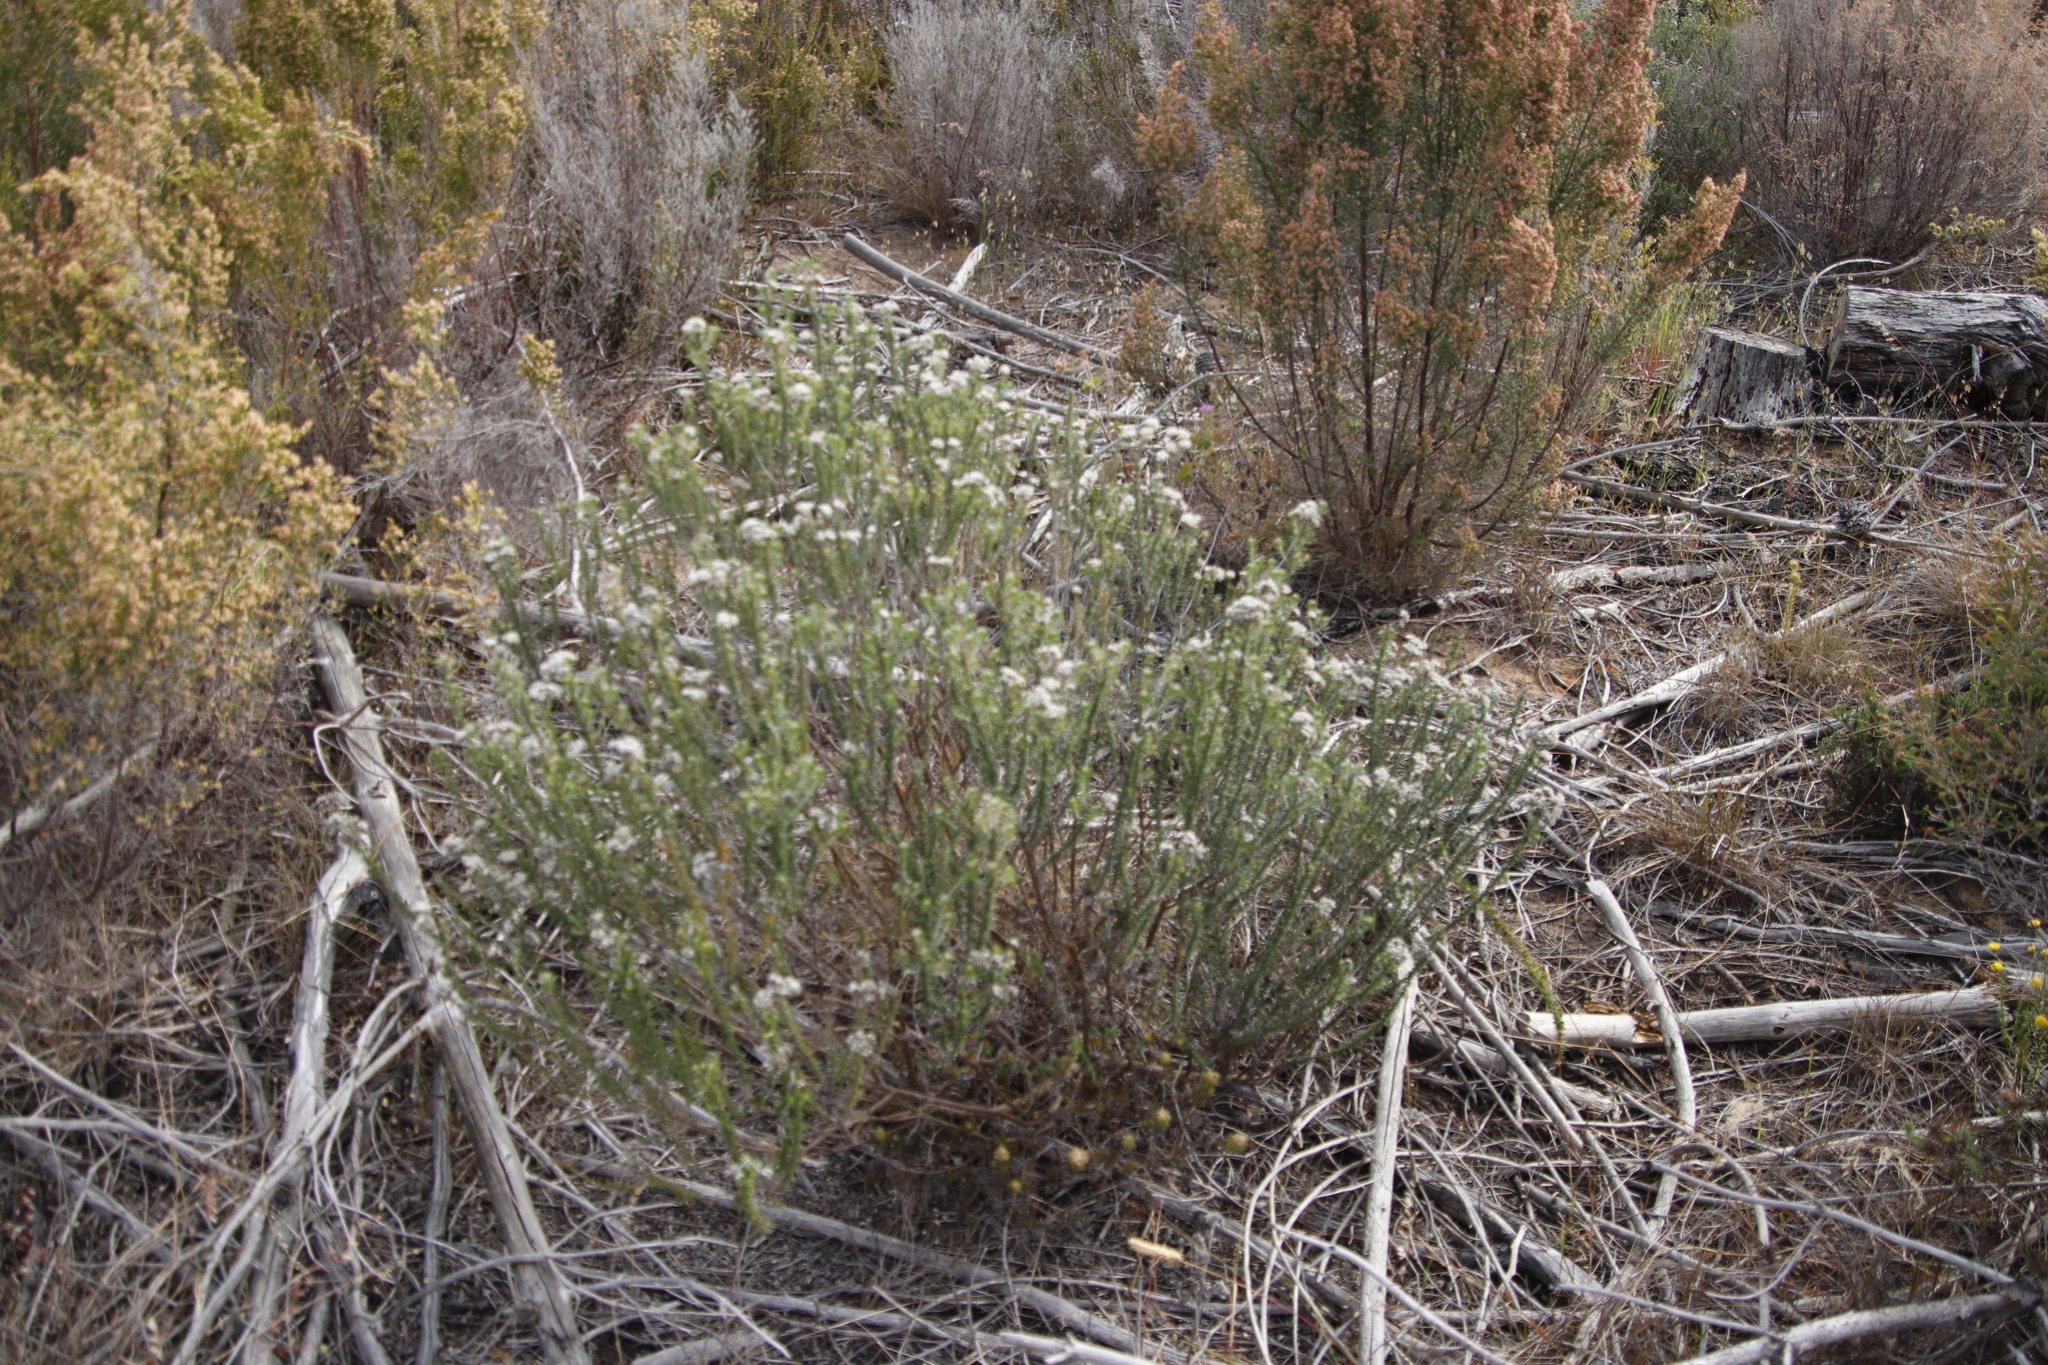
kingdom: Plantae
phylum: Tracheophyta
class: Magnoliopsida
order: Asterales
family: Asteraceae
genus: Metalasia
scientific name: Metalasia densa
